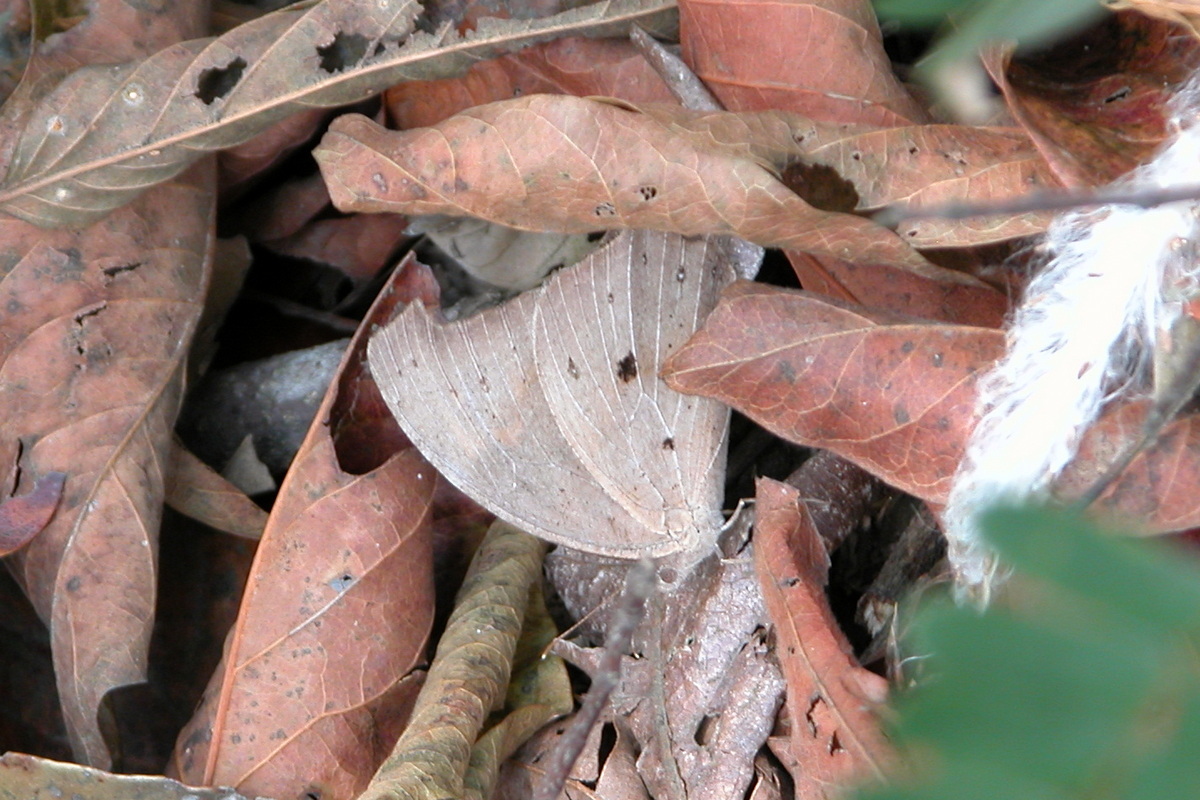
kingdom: Animalia
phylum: Arthropoda
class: Insecta
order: Lepidoptera
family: Nymphalidae
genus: Melanitis
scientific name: Melanitis leda
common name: Twilight brown
